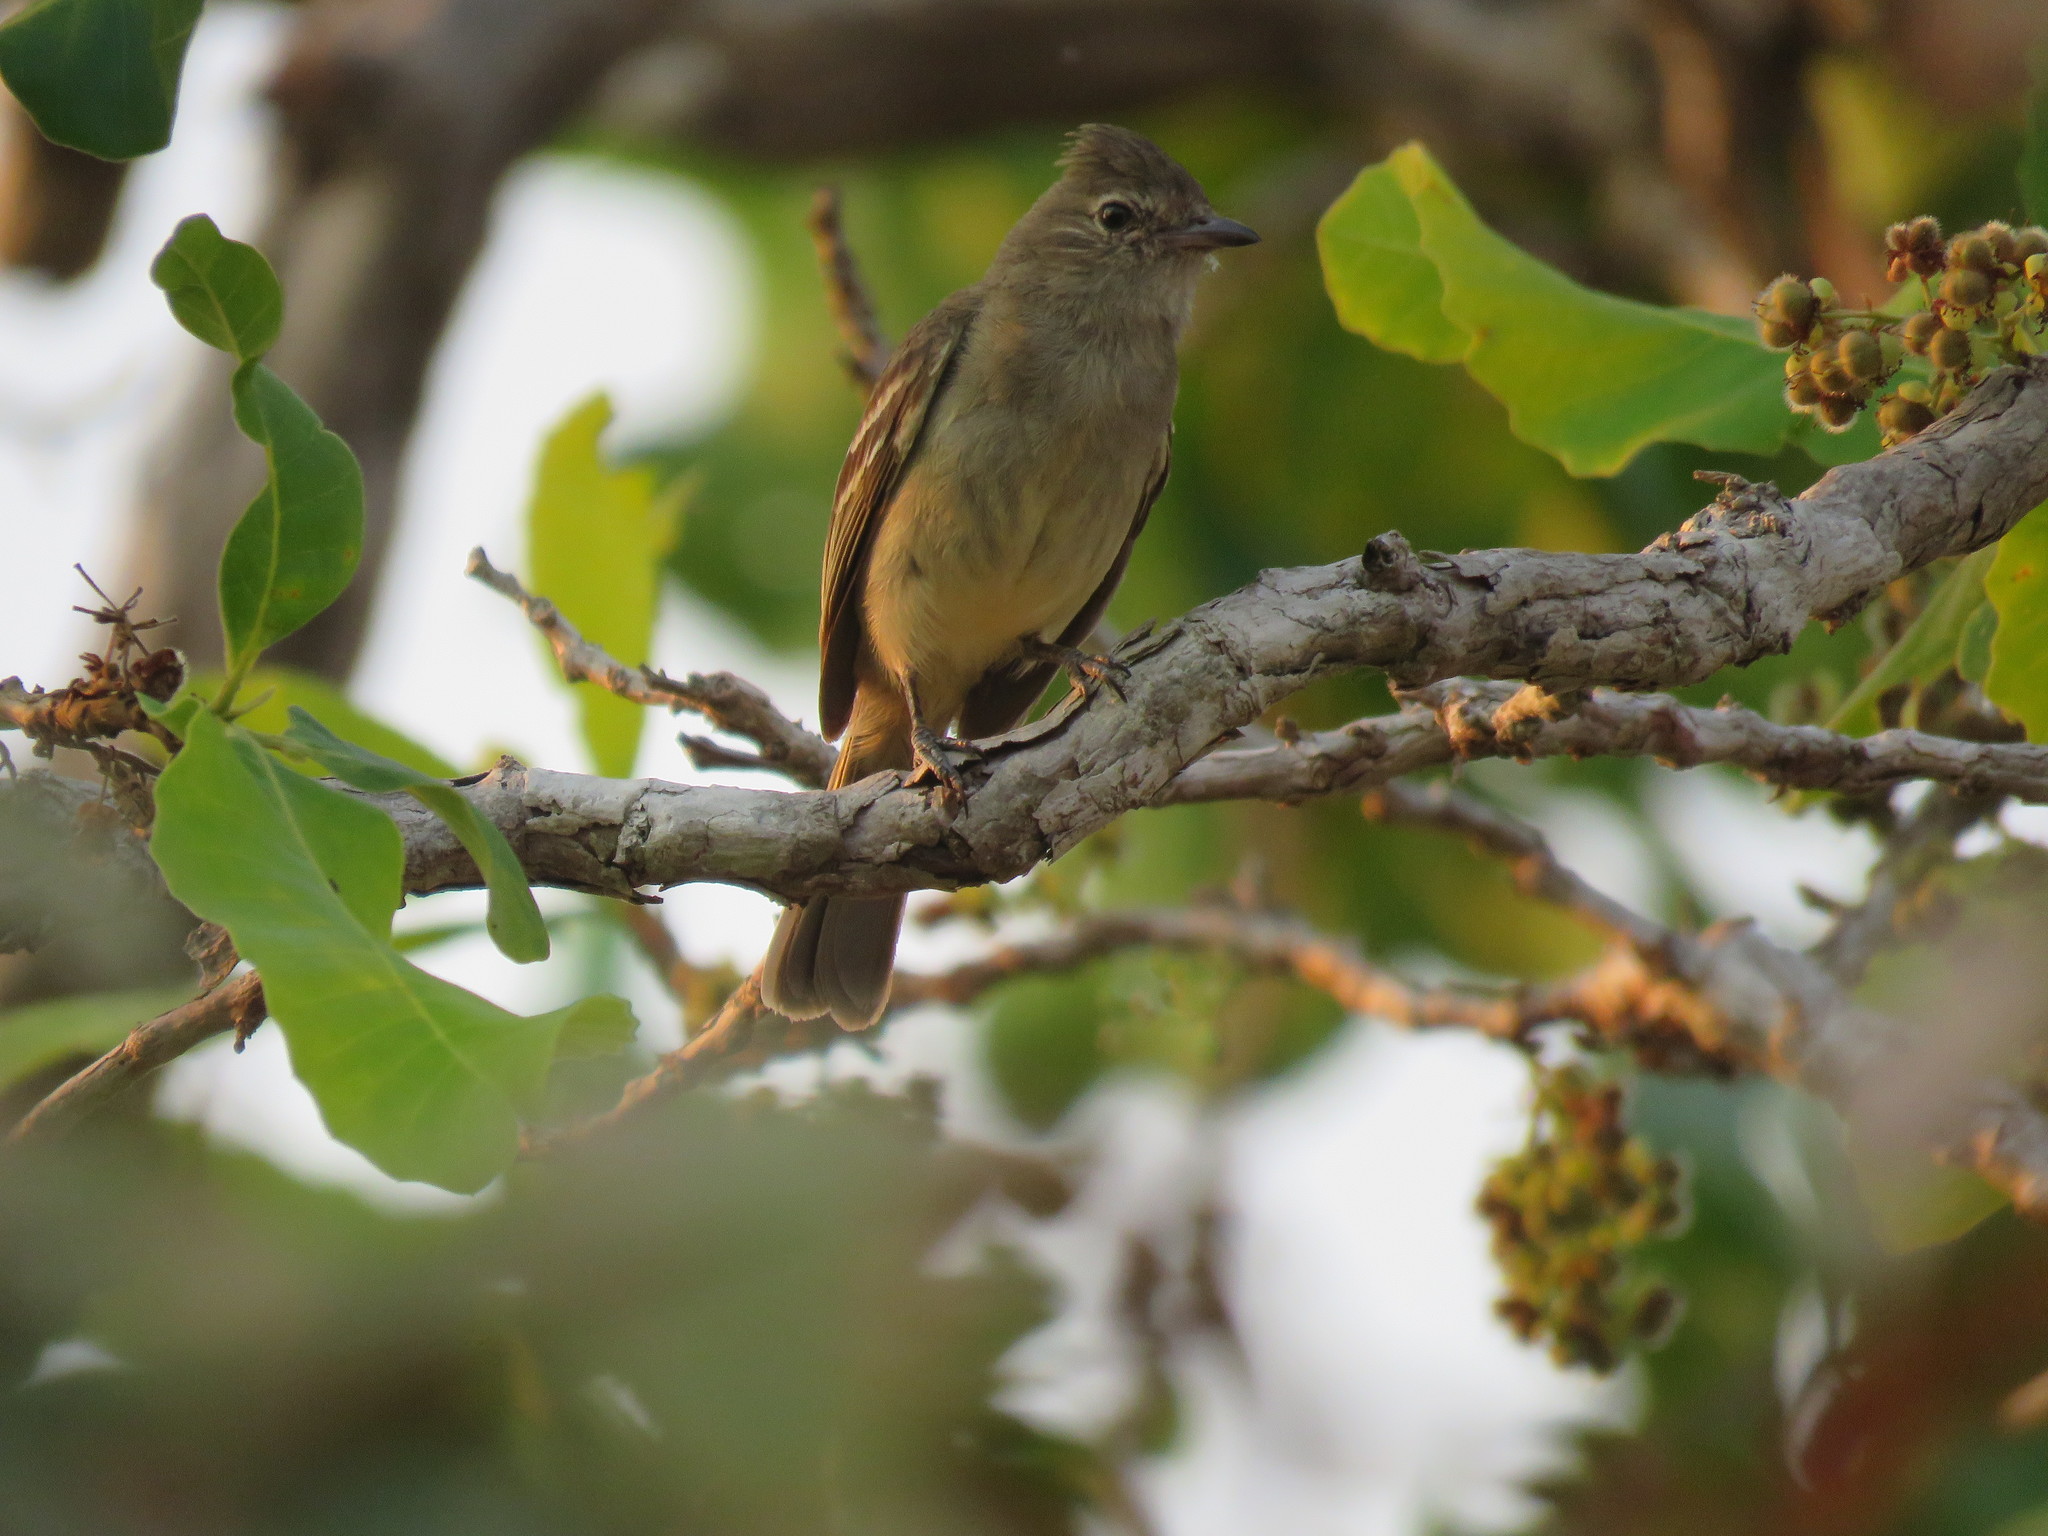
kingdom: Animalia
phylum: Chordata
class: Aves
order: Passeriformes
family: Tyrannidae
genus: Elaenia
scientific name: Elaenia flavogaster
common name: Yellow-bellied elaenia
